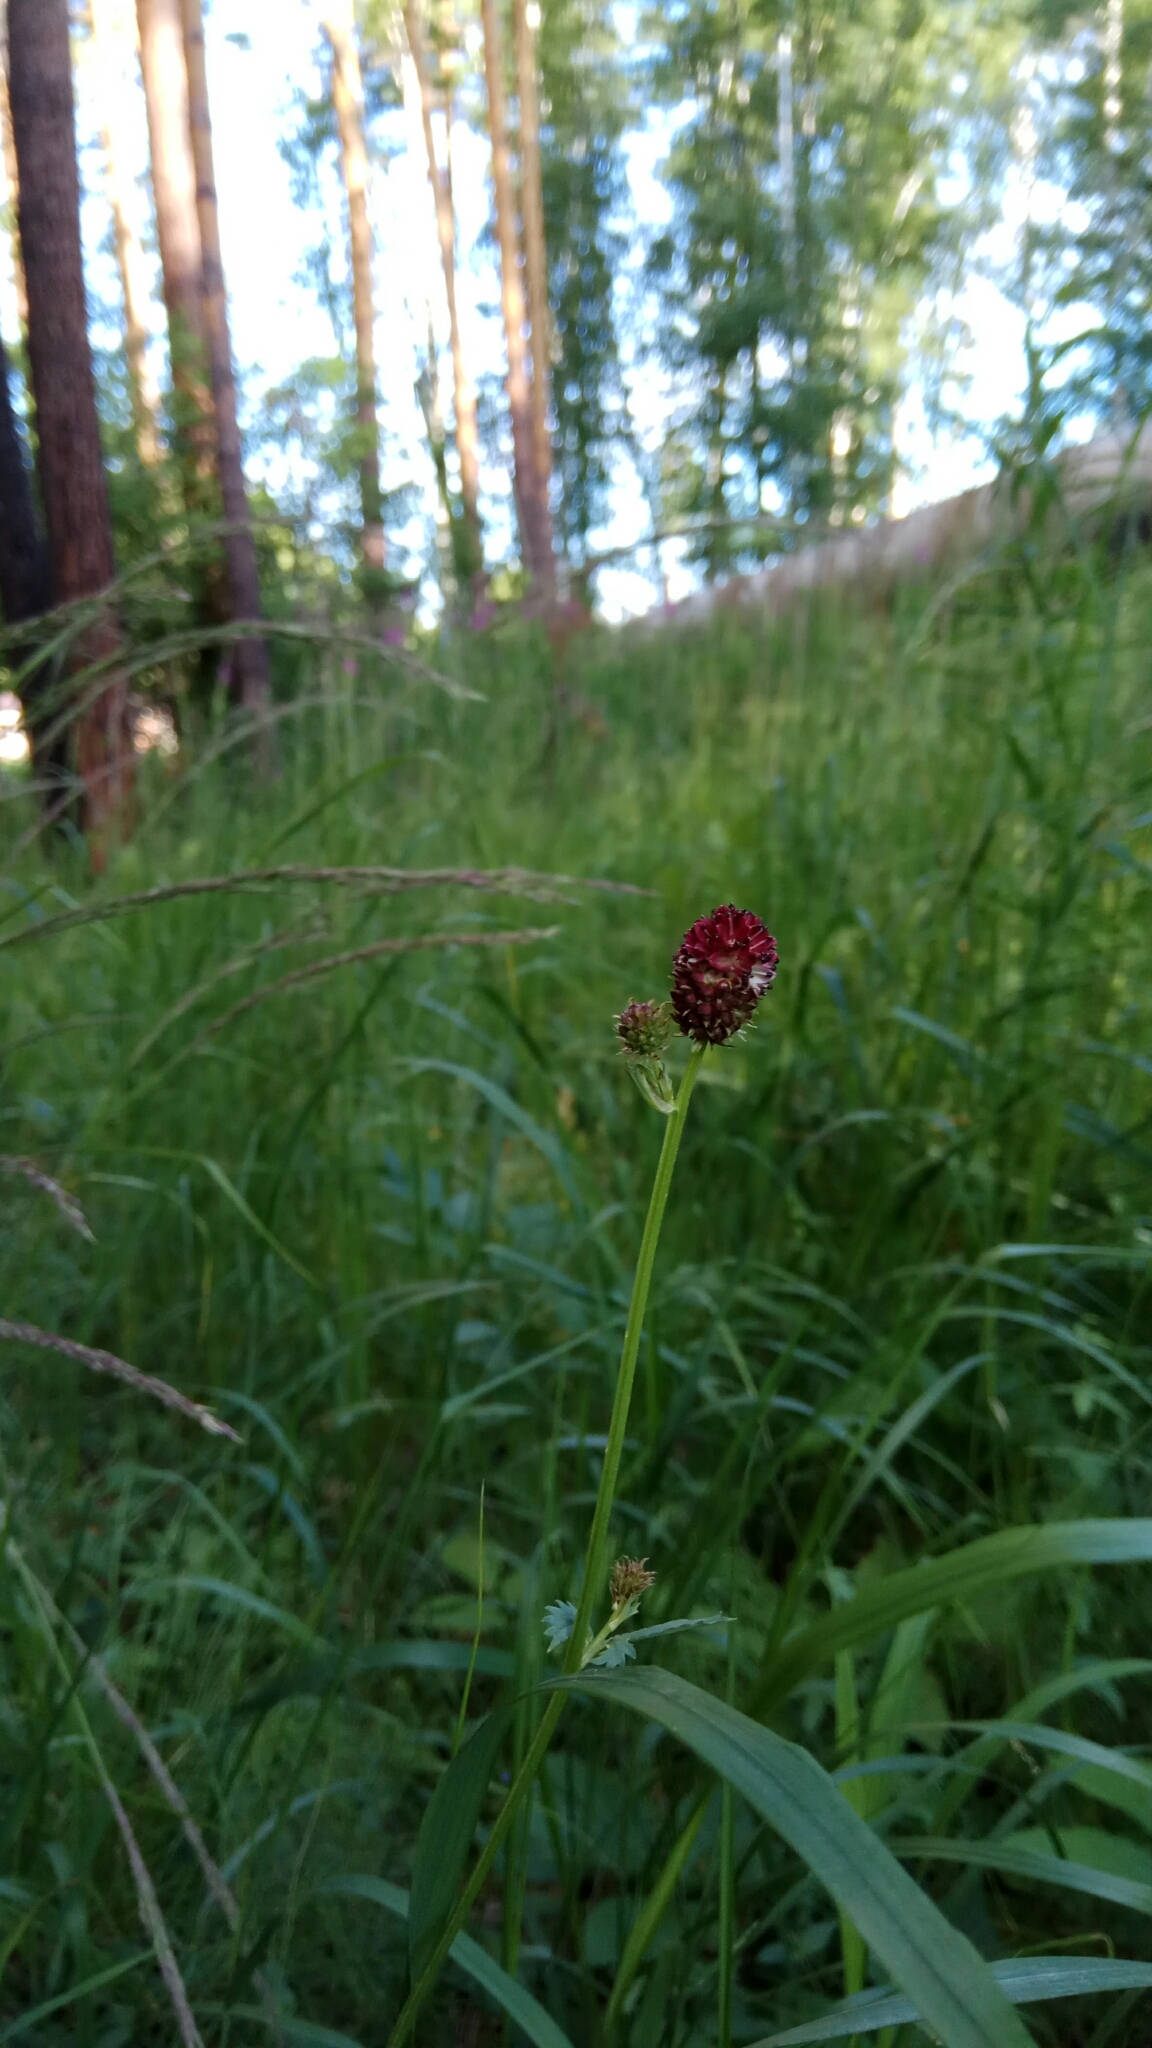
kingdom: Plantae
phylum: Tracheophyta
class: Magnoliopsida
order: Rosales
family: Rosaceae
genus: Sanguisorba
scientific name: Sanguisorba officinalis
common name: Great burnet
